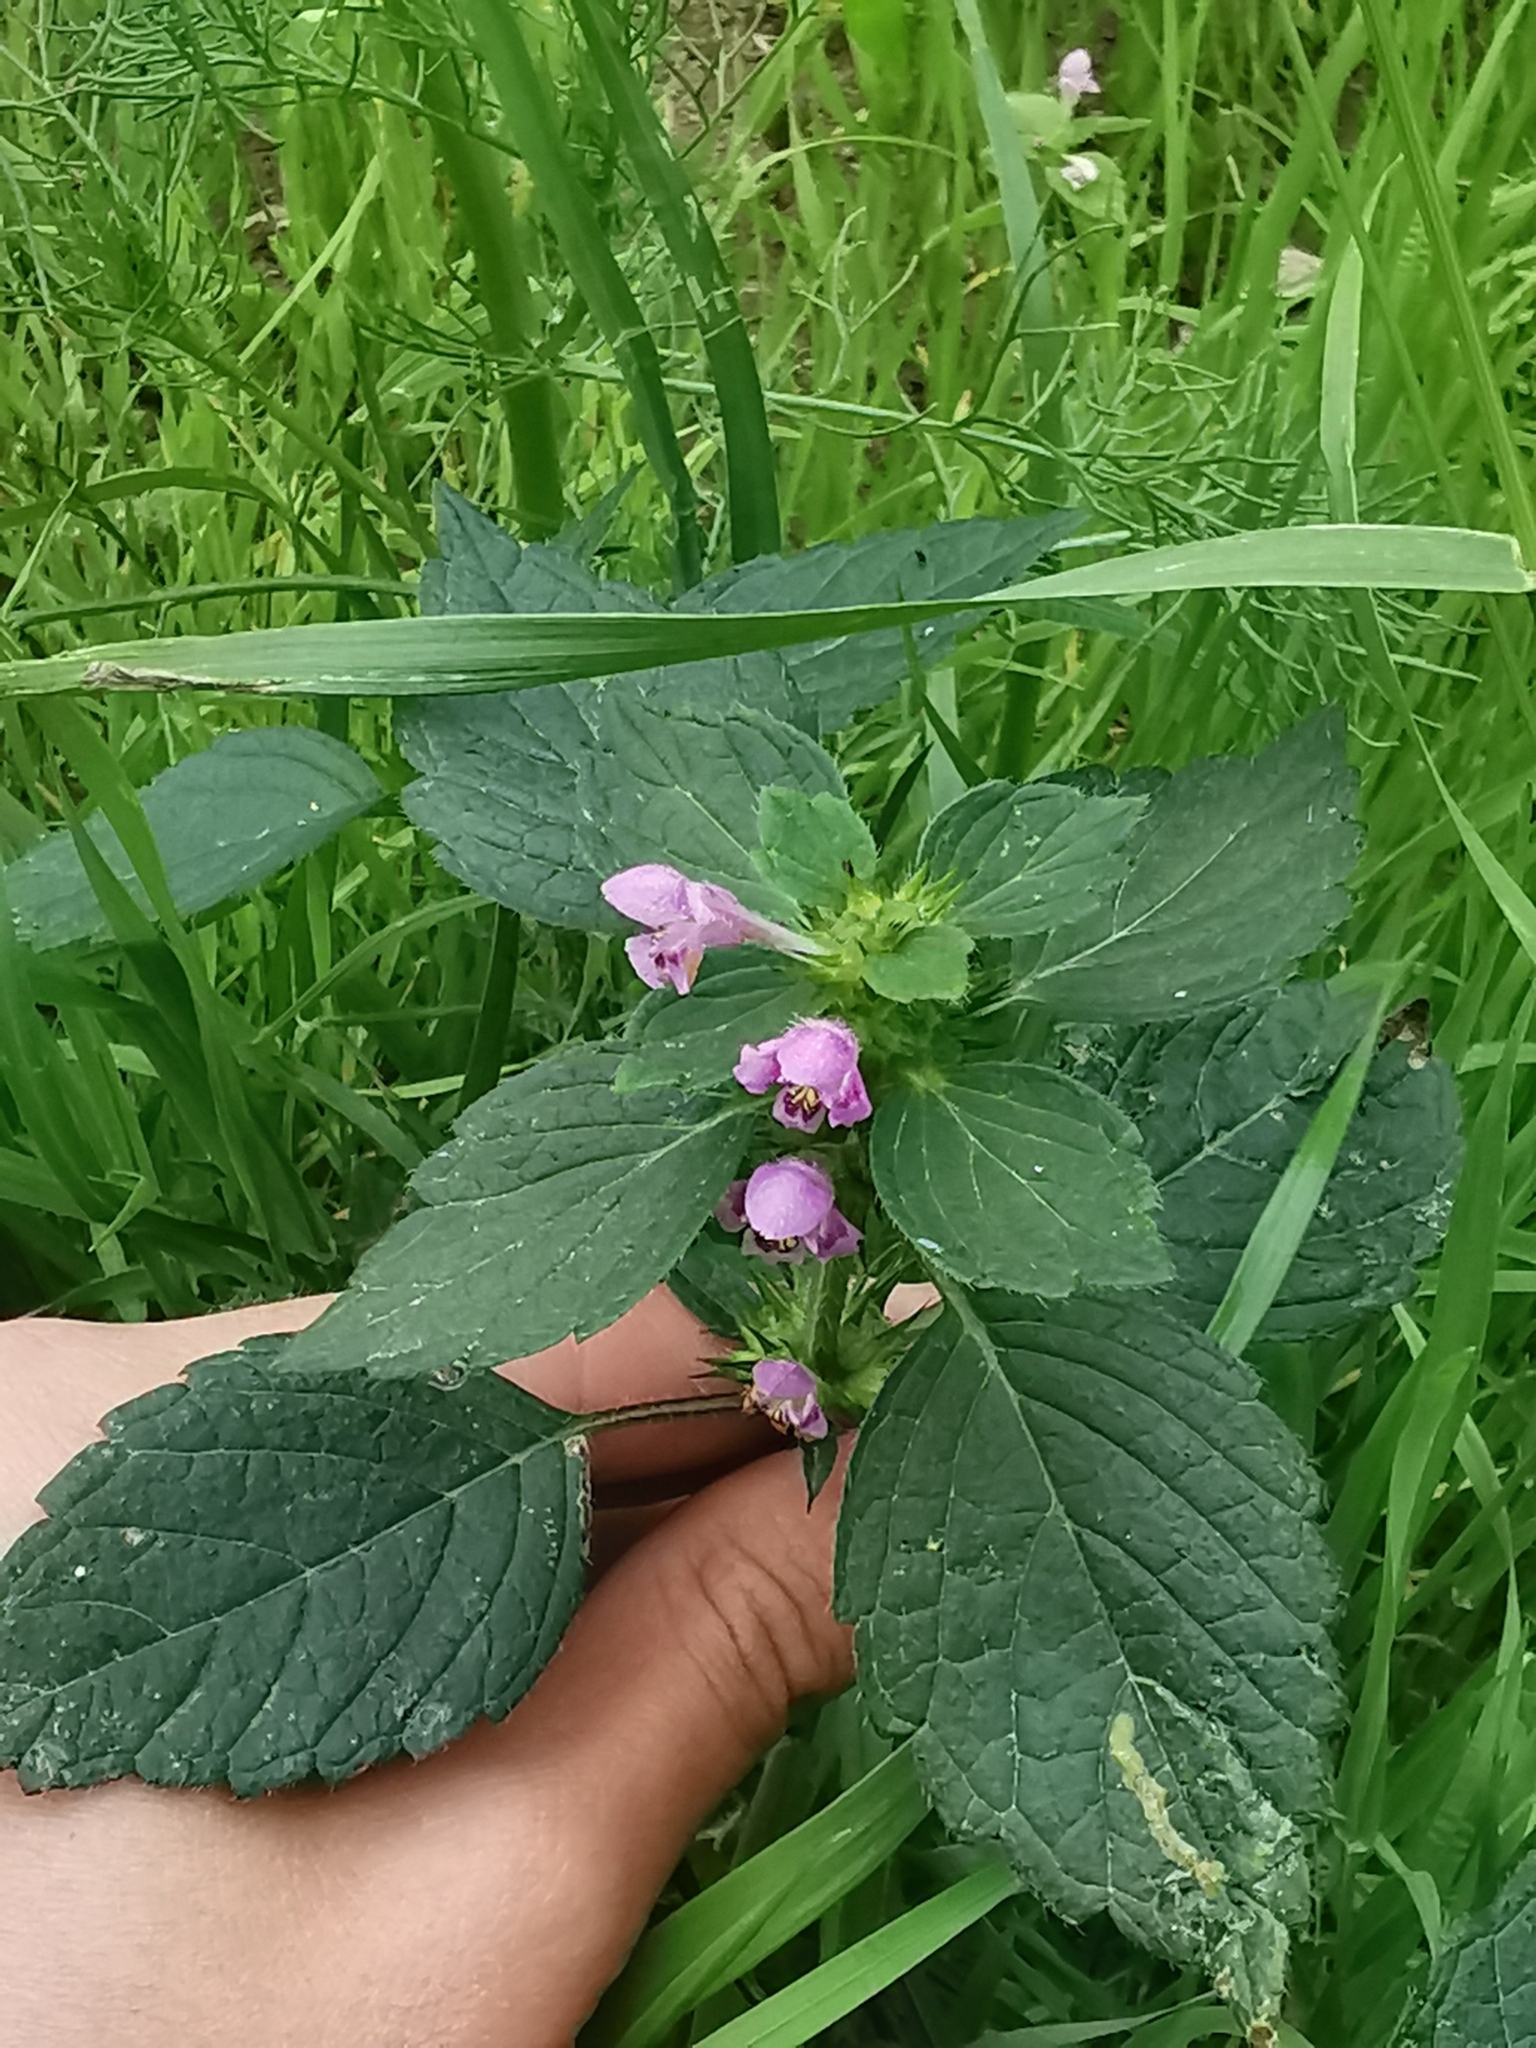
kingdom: Plantae
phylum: Tracheophyta
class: Magnoliopsida
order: Lamiales
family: Lamiaceae
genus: Galeopsis
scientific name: Galeopsis tetrahit
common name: Common hemp-nettle
